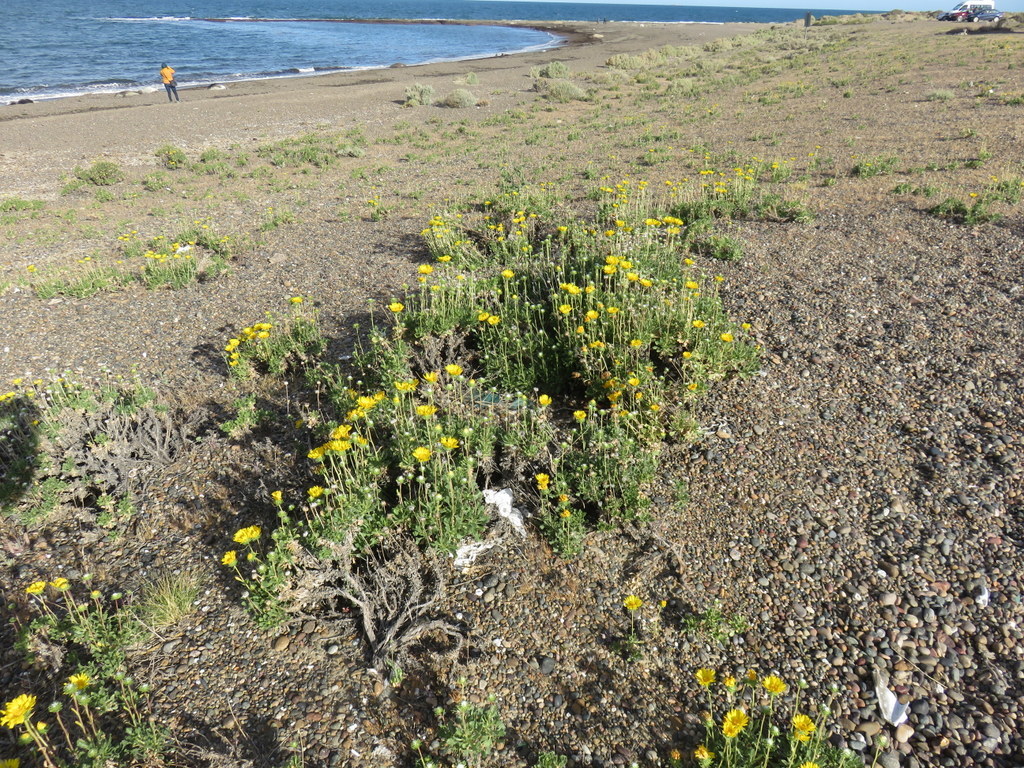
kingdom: Plantae
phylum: Tracheophyta
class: Magnoliopsida
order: Asterales
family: Asteraceae
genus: Grindelia
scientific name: Grindelia chiloensis
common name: Shrubby gumweed
